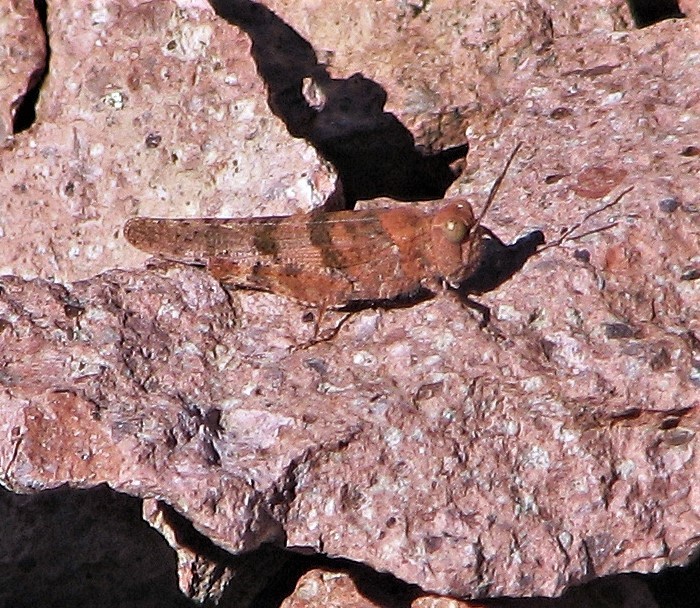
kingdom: Animalia
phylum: Arthropoda
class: Insecta
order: Orthoptera
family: Acrididae
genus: Trimerotropis
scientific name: Trimerotropis pallidipennis
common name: Pallid-winged grasshopper
